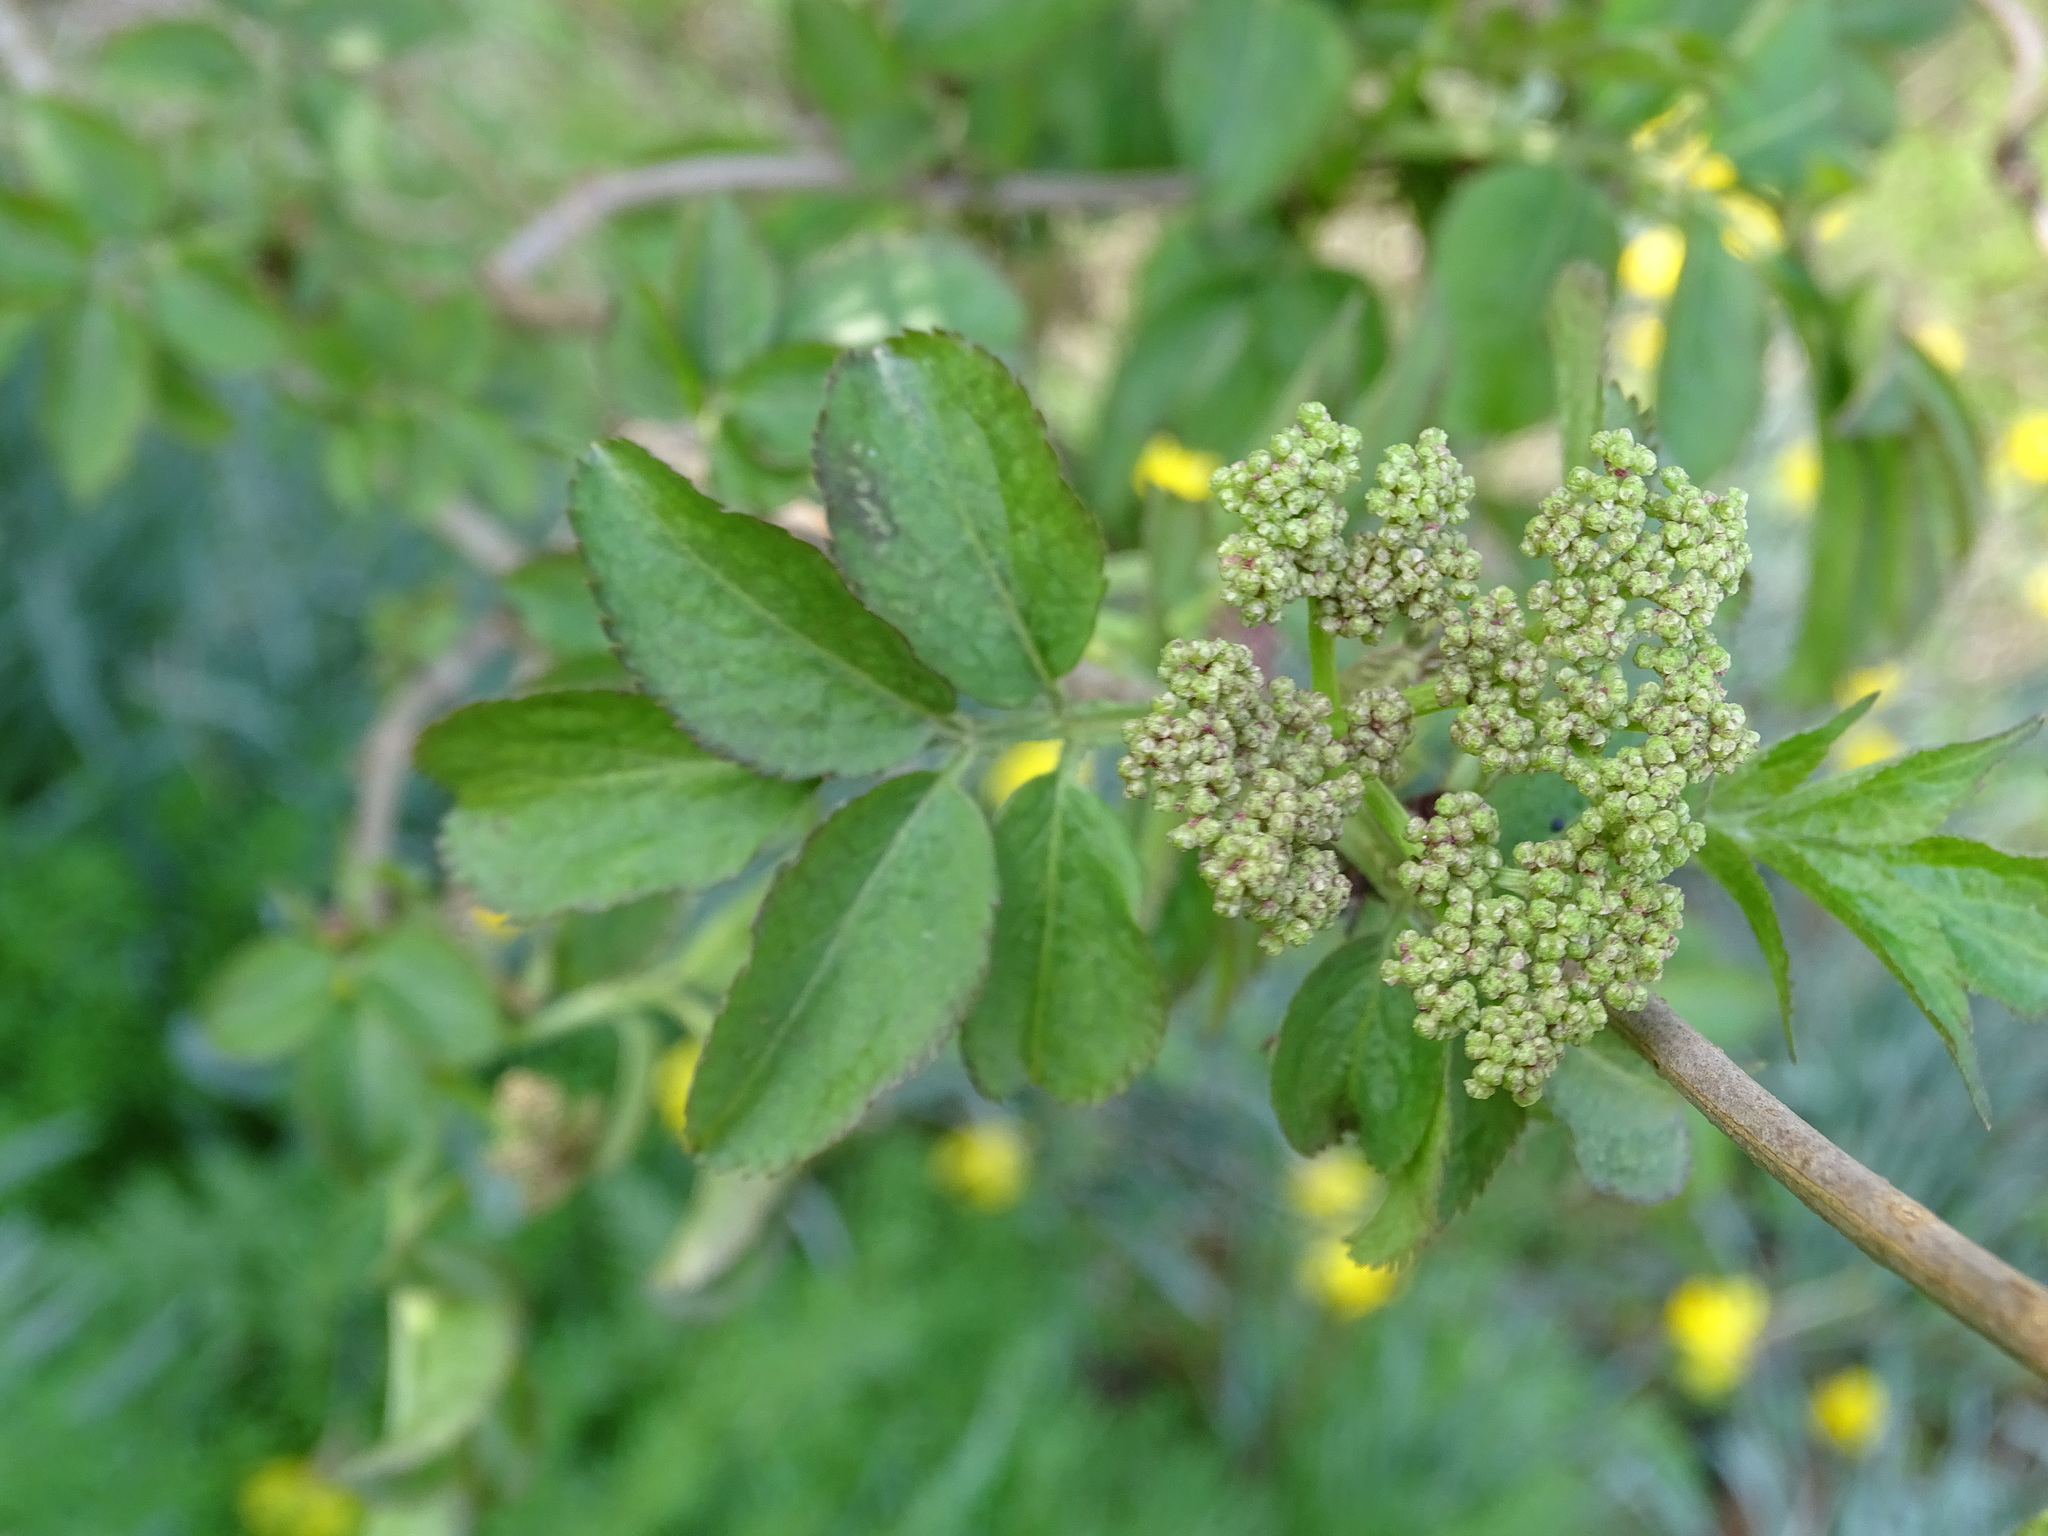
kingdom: Plantae
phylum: Tracheophyta
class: Magnoliopsida
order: Dipsacales
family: Viburnaceae
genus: Sambucus
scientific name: Sambucus nigra
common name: Elder
